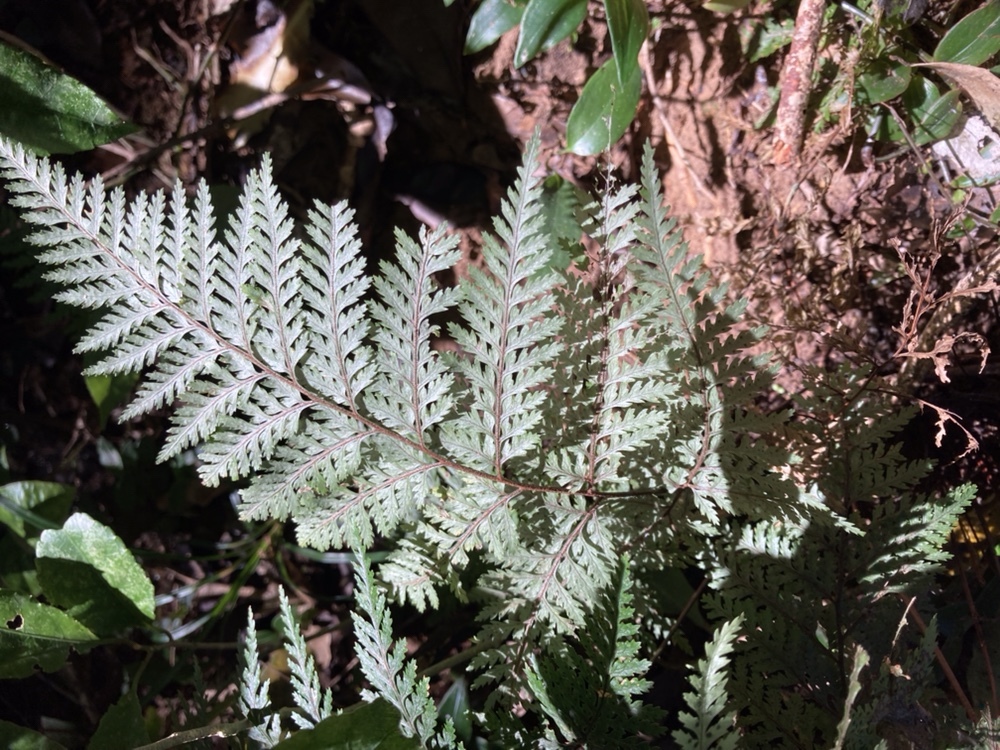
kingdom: Plantae
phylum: Tracheophyta
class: Polypodiopsida
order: Polypodiales
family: Dryopteridaceae
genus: Parapolystichum
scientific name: Parapolystichum glabellum
